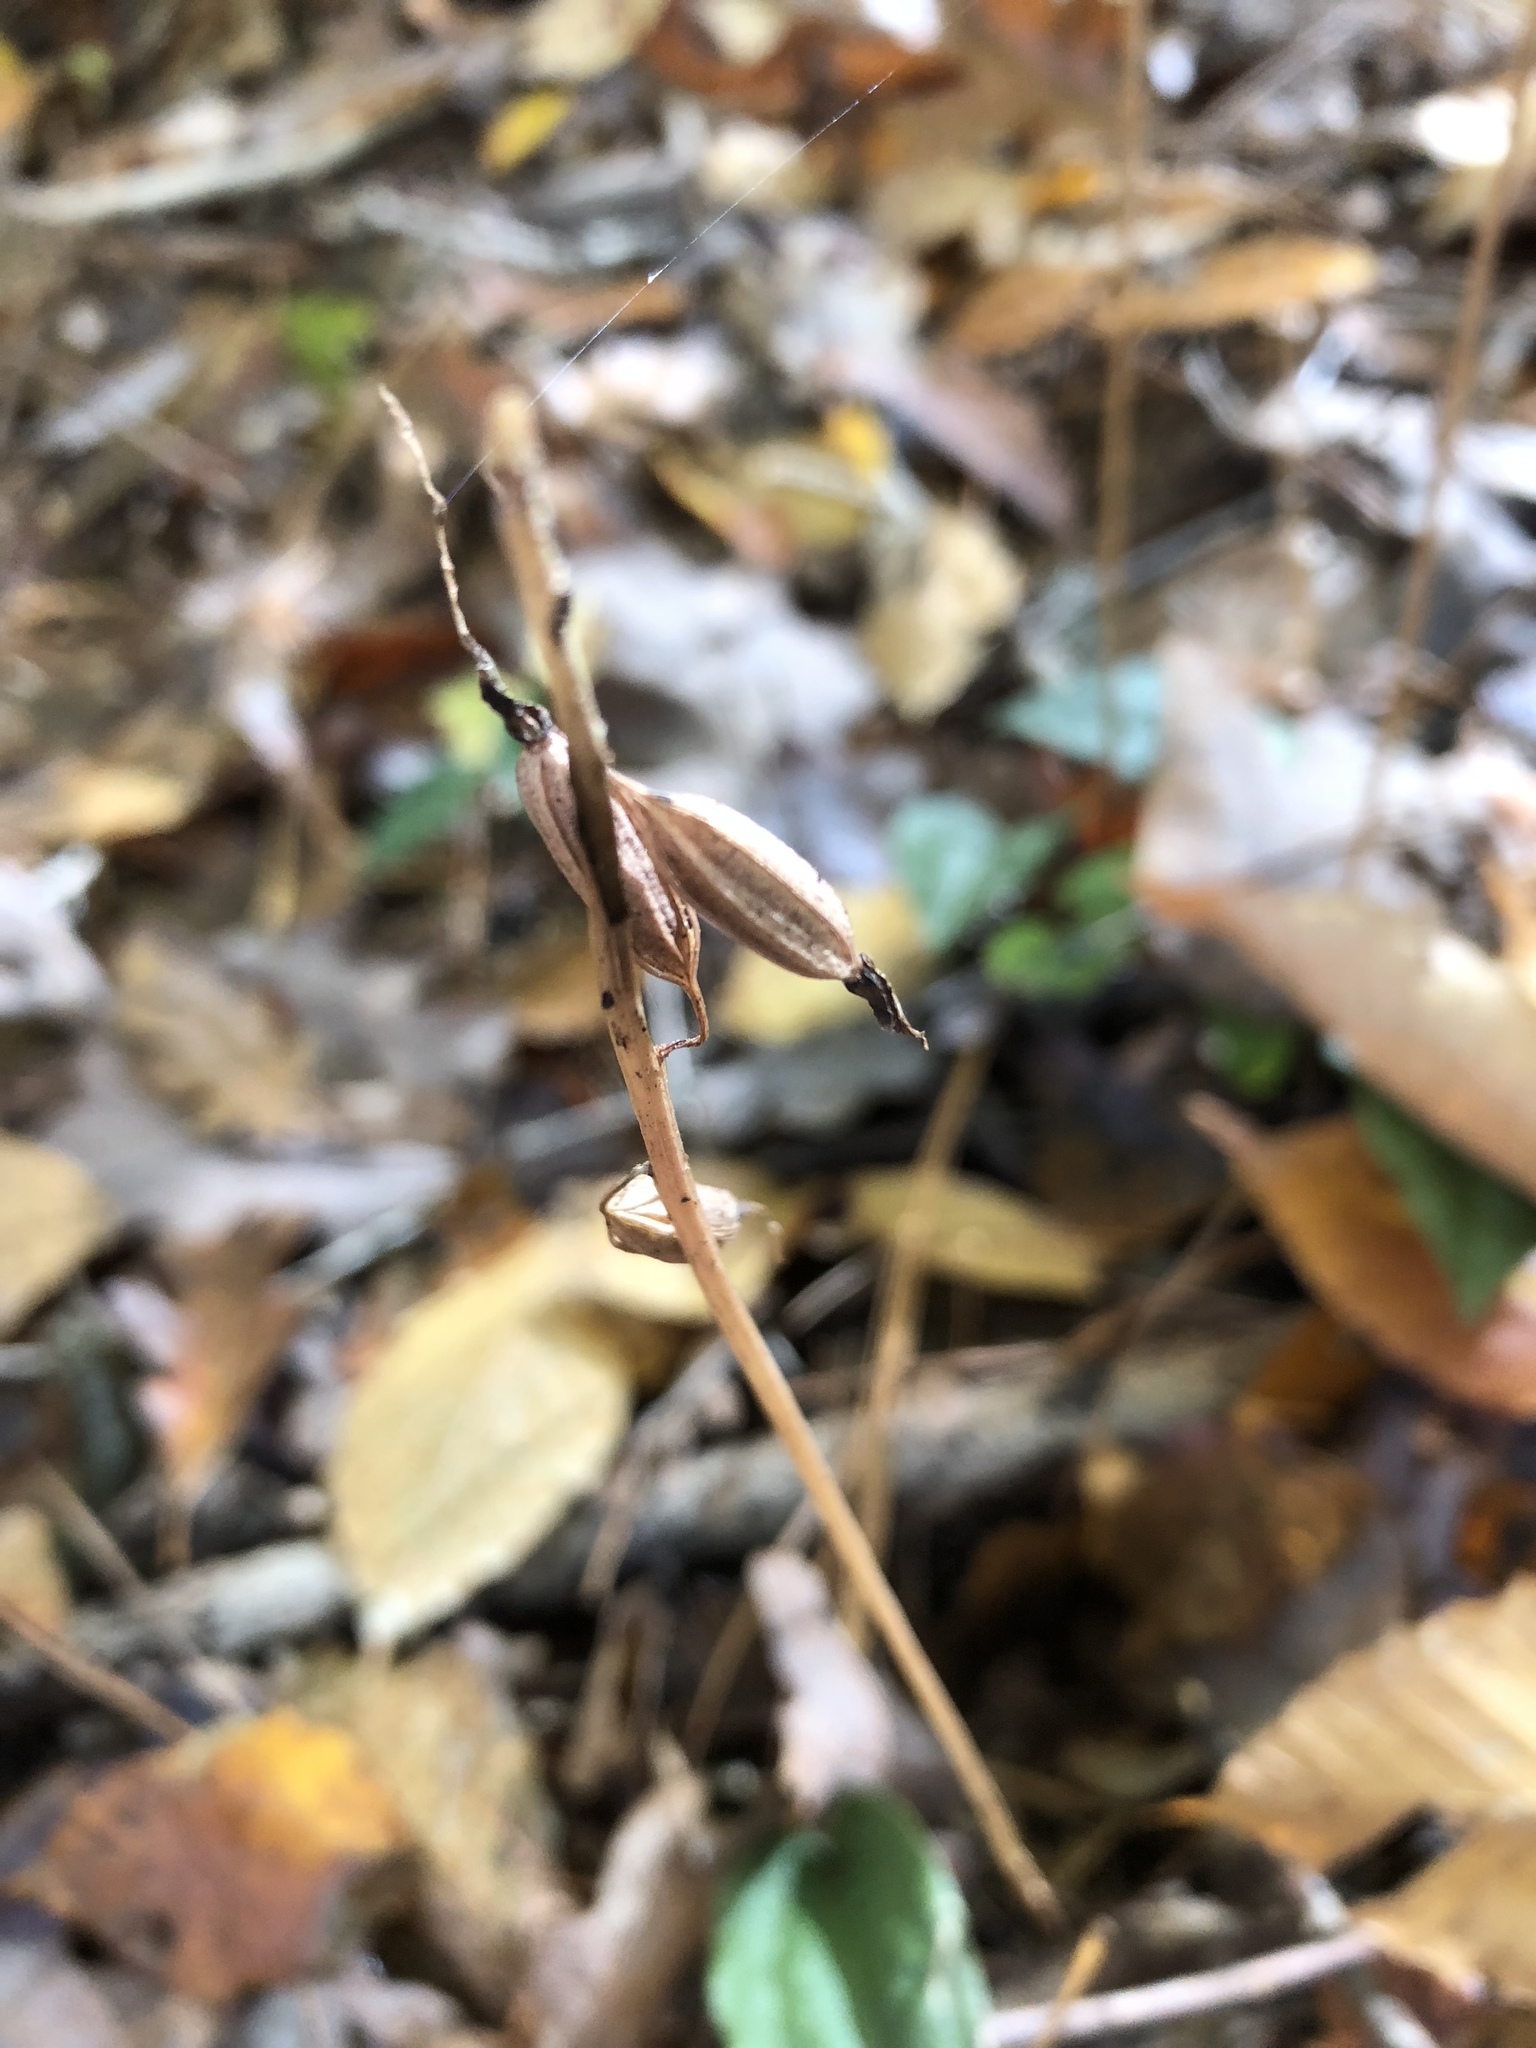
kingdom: Plantae
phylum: Tracheophyta
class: Liliopsida
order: Asparagales
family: Orchidaceae
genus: Tipularia
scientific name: Tipularia discolor
